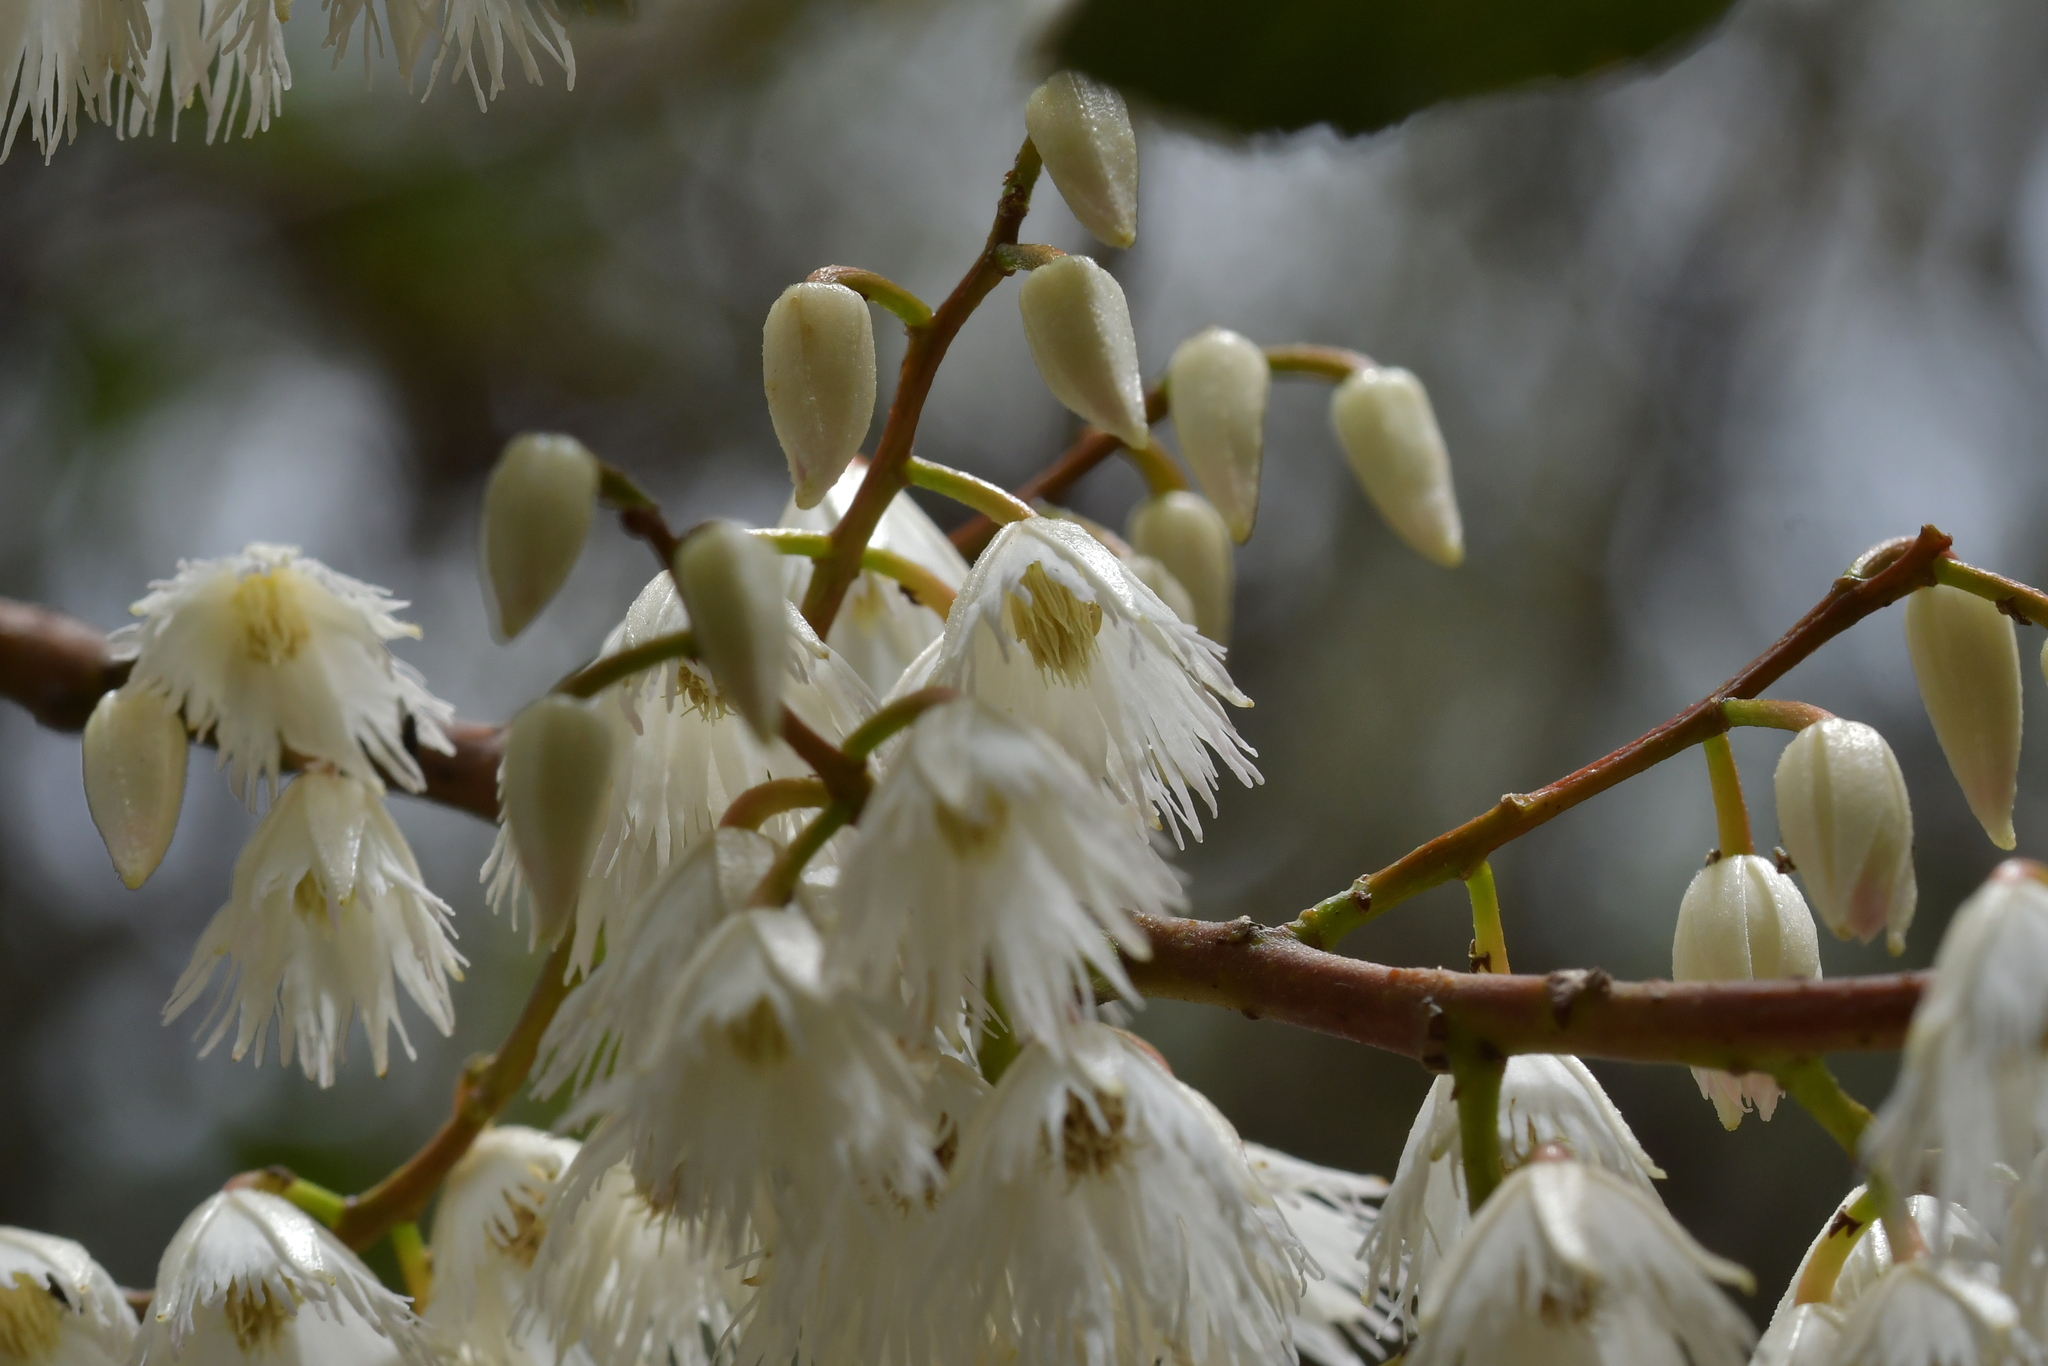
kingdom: Plantae
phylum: Tracheophyta
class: Magnoliopsida
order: Oxalidales
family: Elaeocarpaceae
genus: Elaeocarpus
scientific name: Elaeocarpus dentatus
